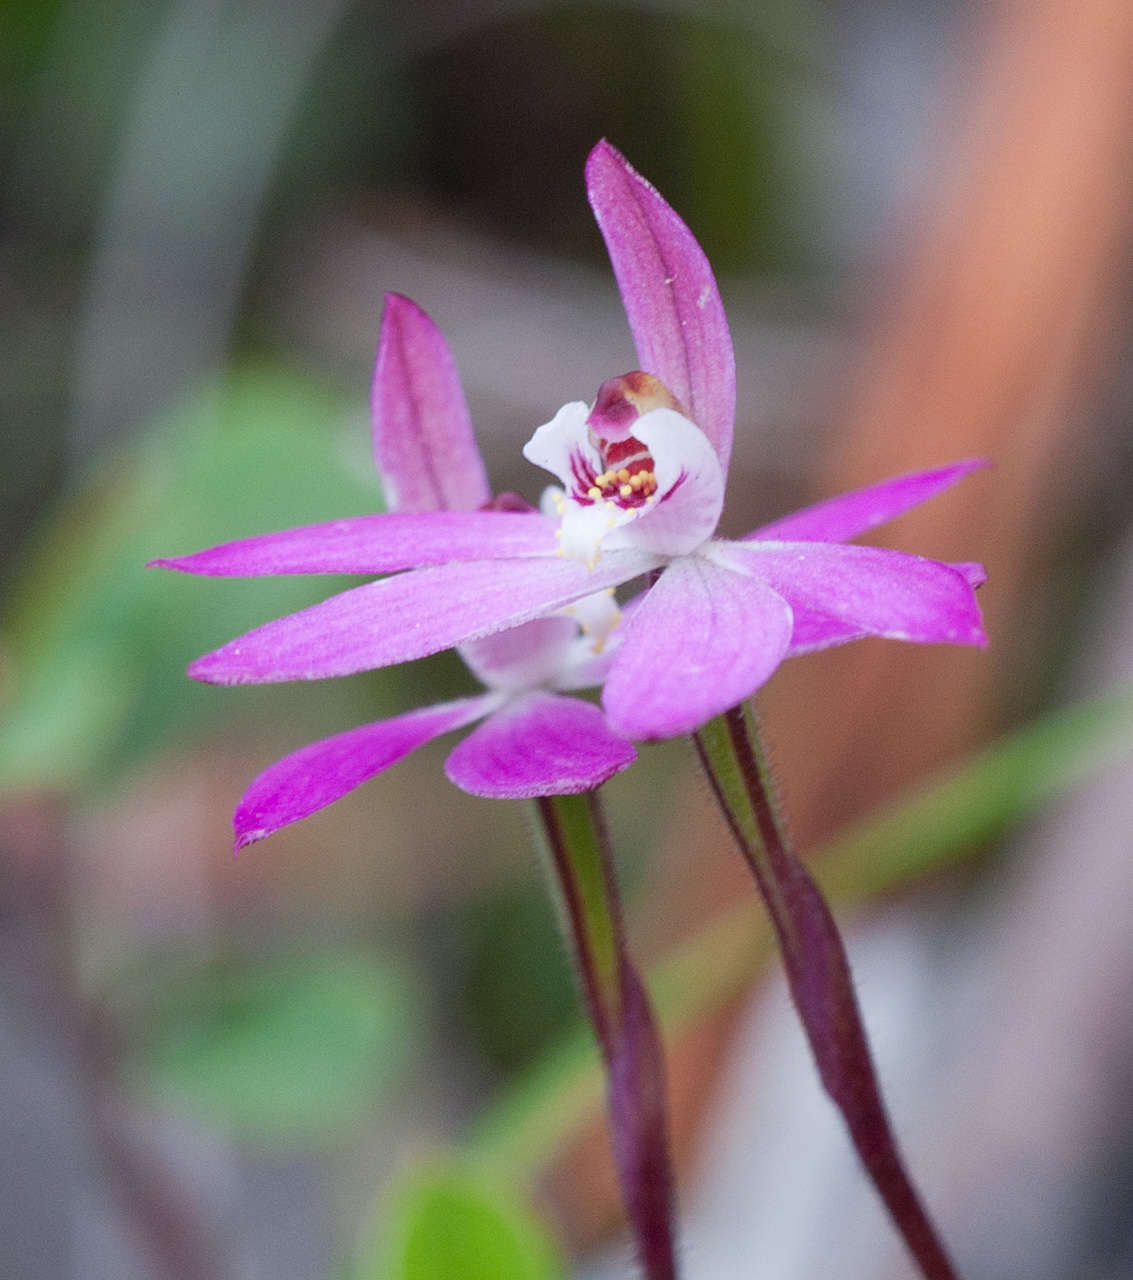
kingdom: Plantae
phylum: Tracheophyta
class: Liliopsida
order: Asparagales
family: Orchidaceae
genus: Caladenia
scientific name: Caladenia fuscata
